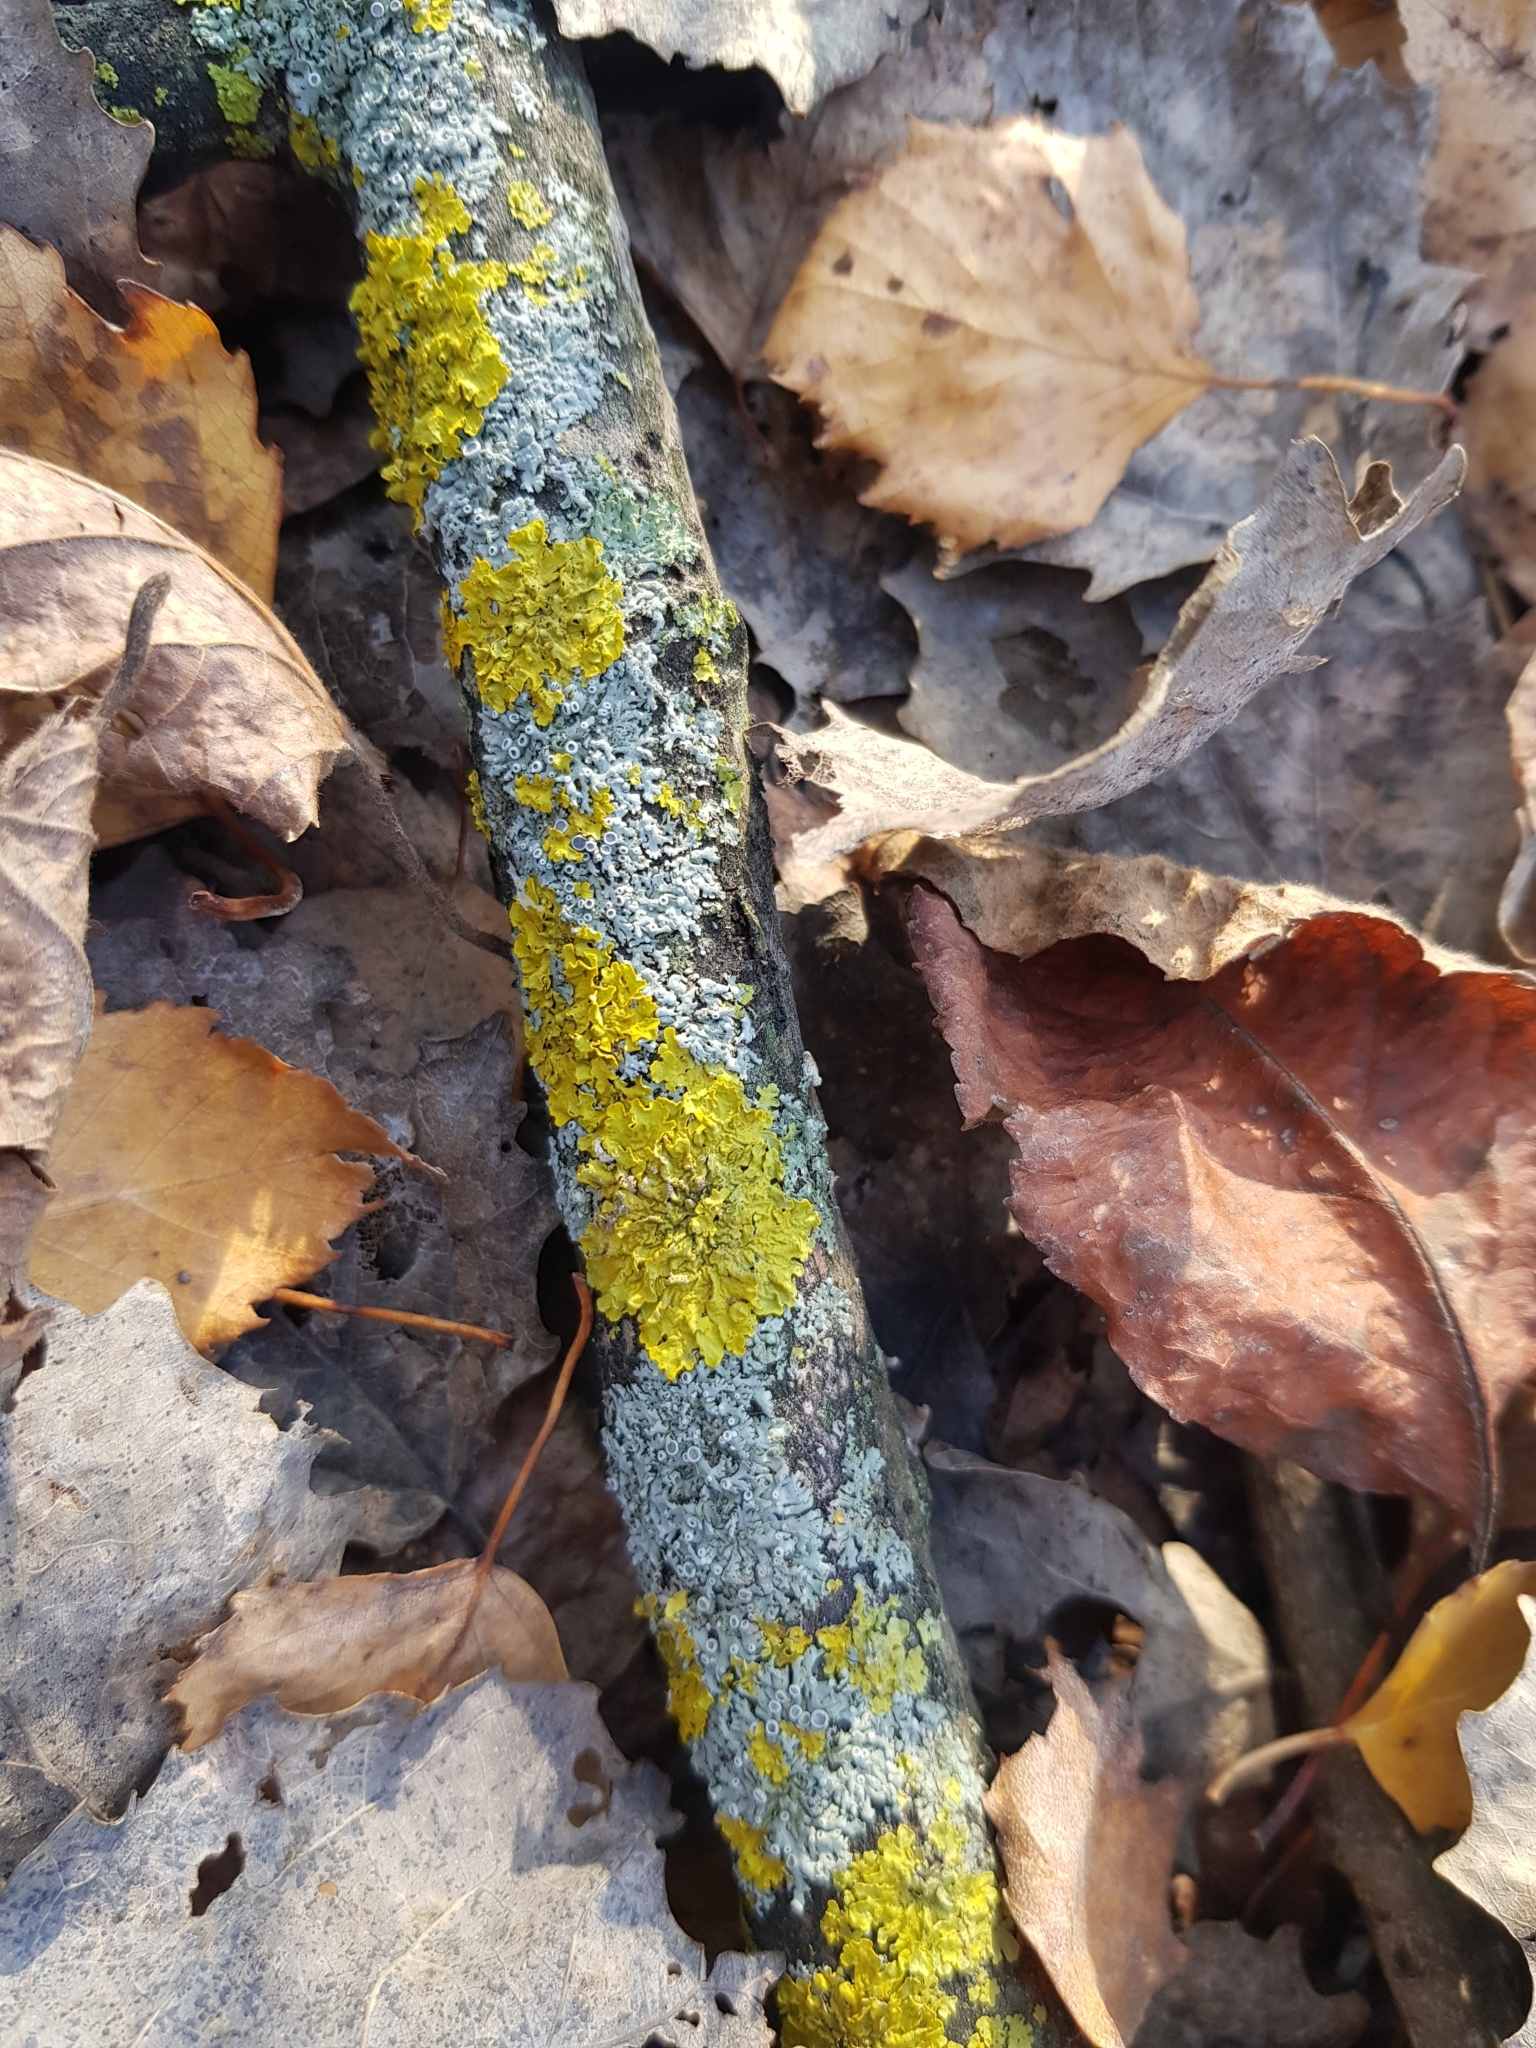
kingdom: Fungi
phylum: Ascomycota
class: Lecanoromycetes
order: Teloschistales
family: Teloschistaceae
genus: Xanthoria
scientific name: Xanthoria parietina
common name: Common orange lichen
